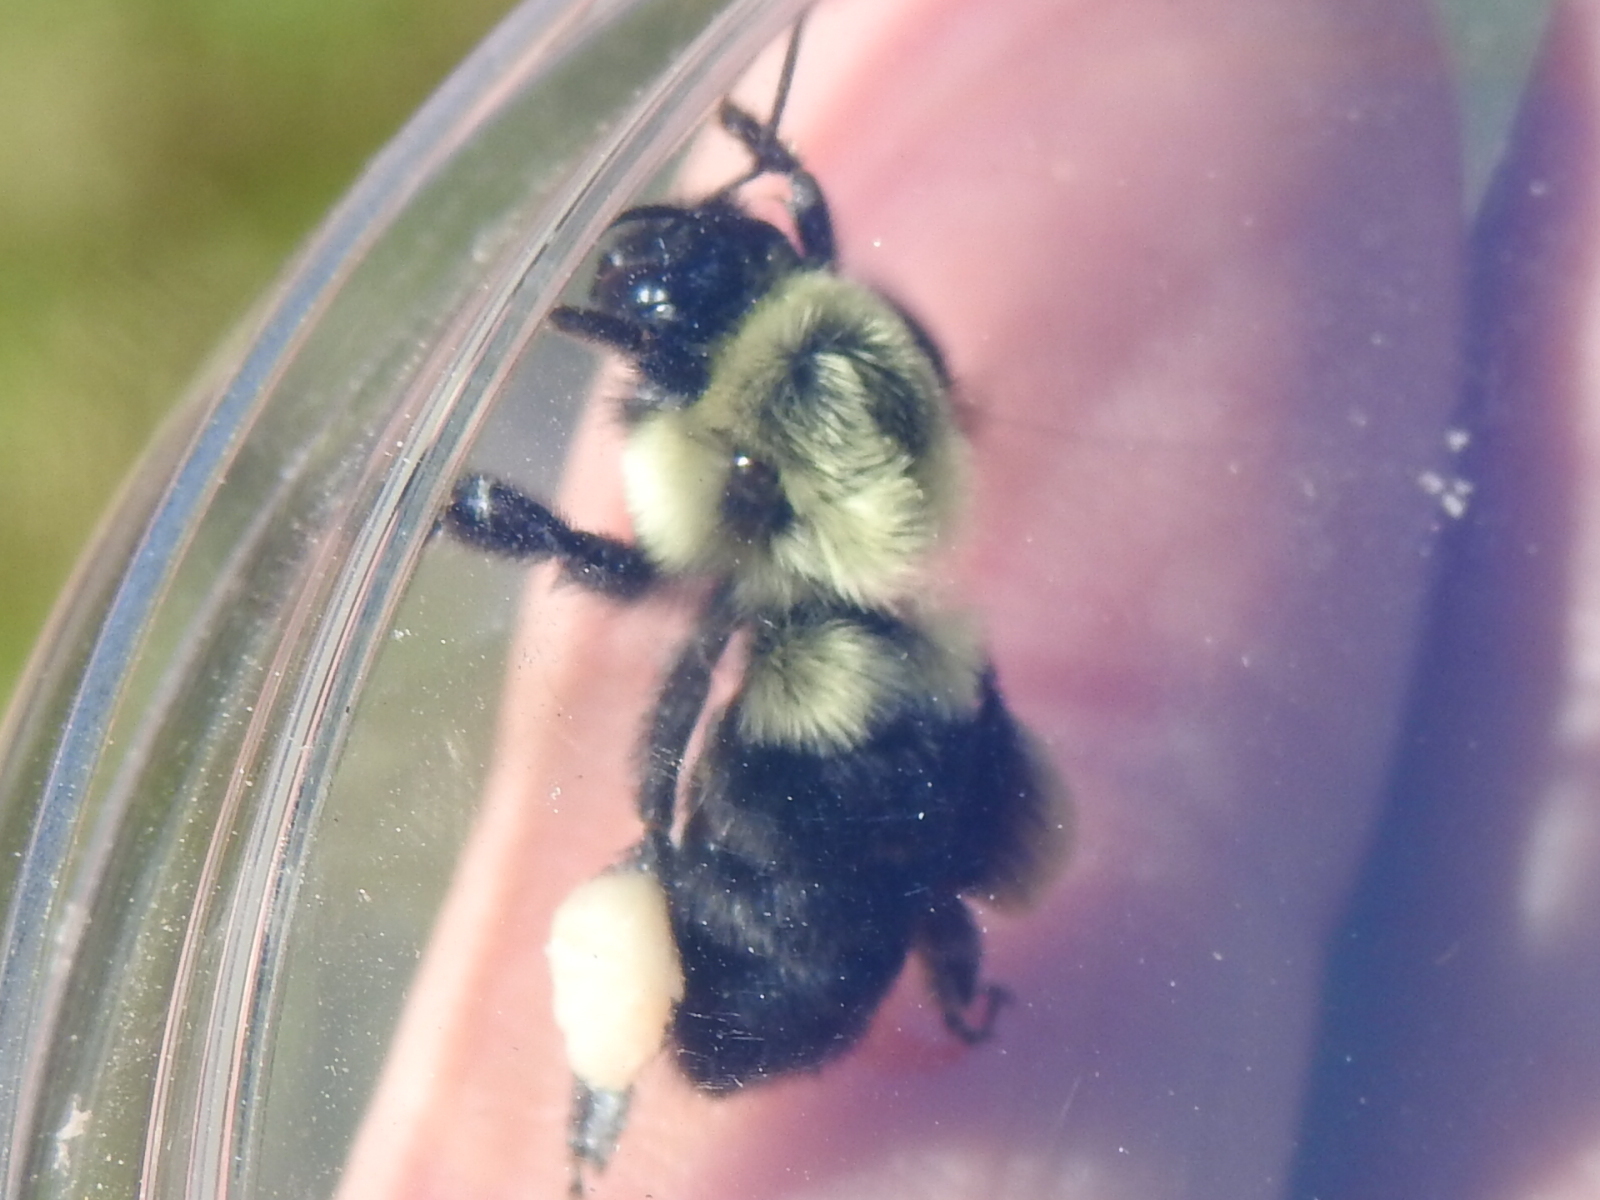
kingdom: Animalia
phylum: Arthropoda
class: Insecta
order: Hymenoptera
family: Apidae
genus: Bombus
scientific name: Bombus impatiens
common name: Common eastern bumble bee
